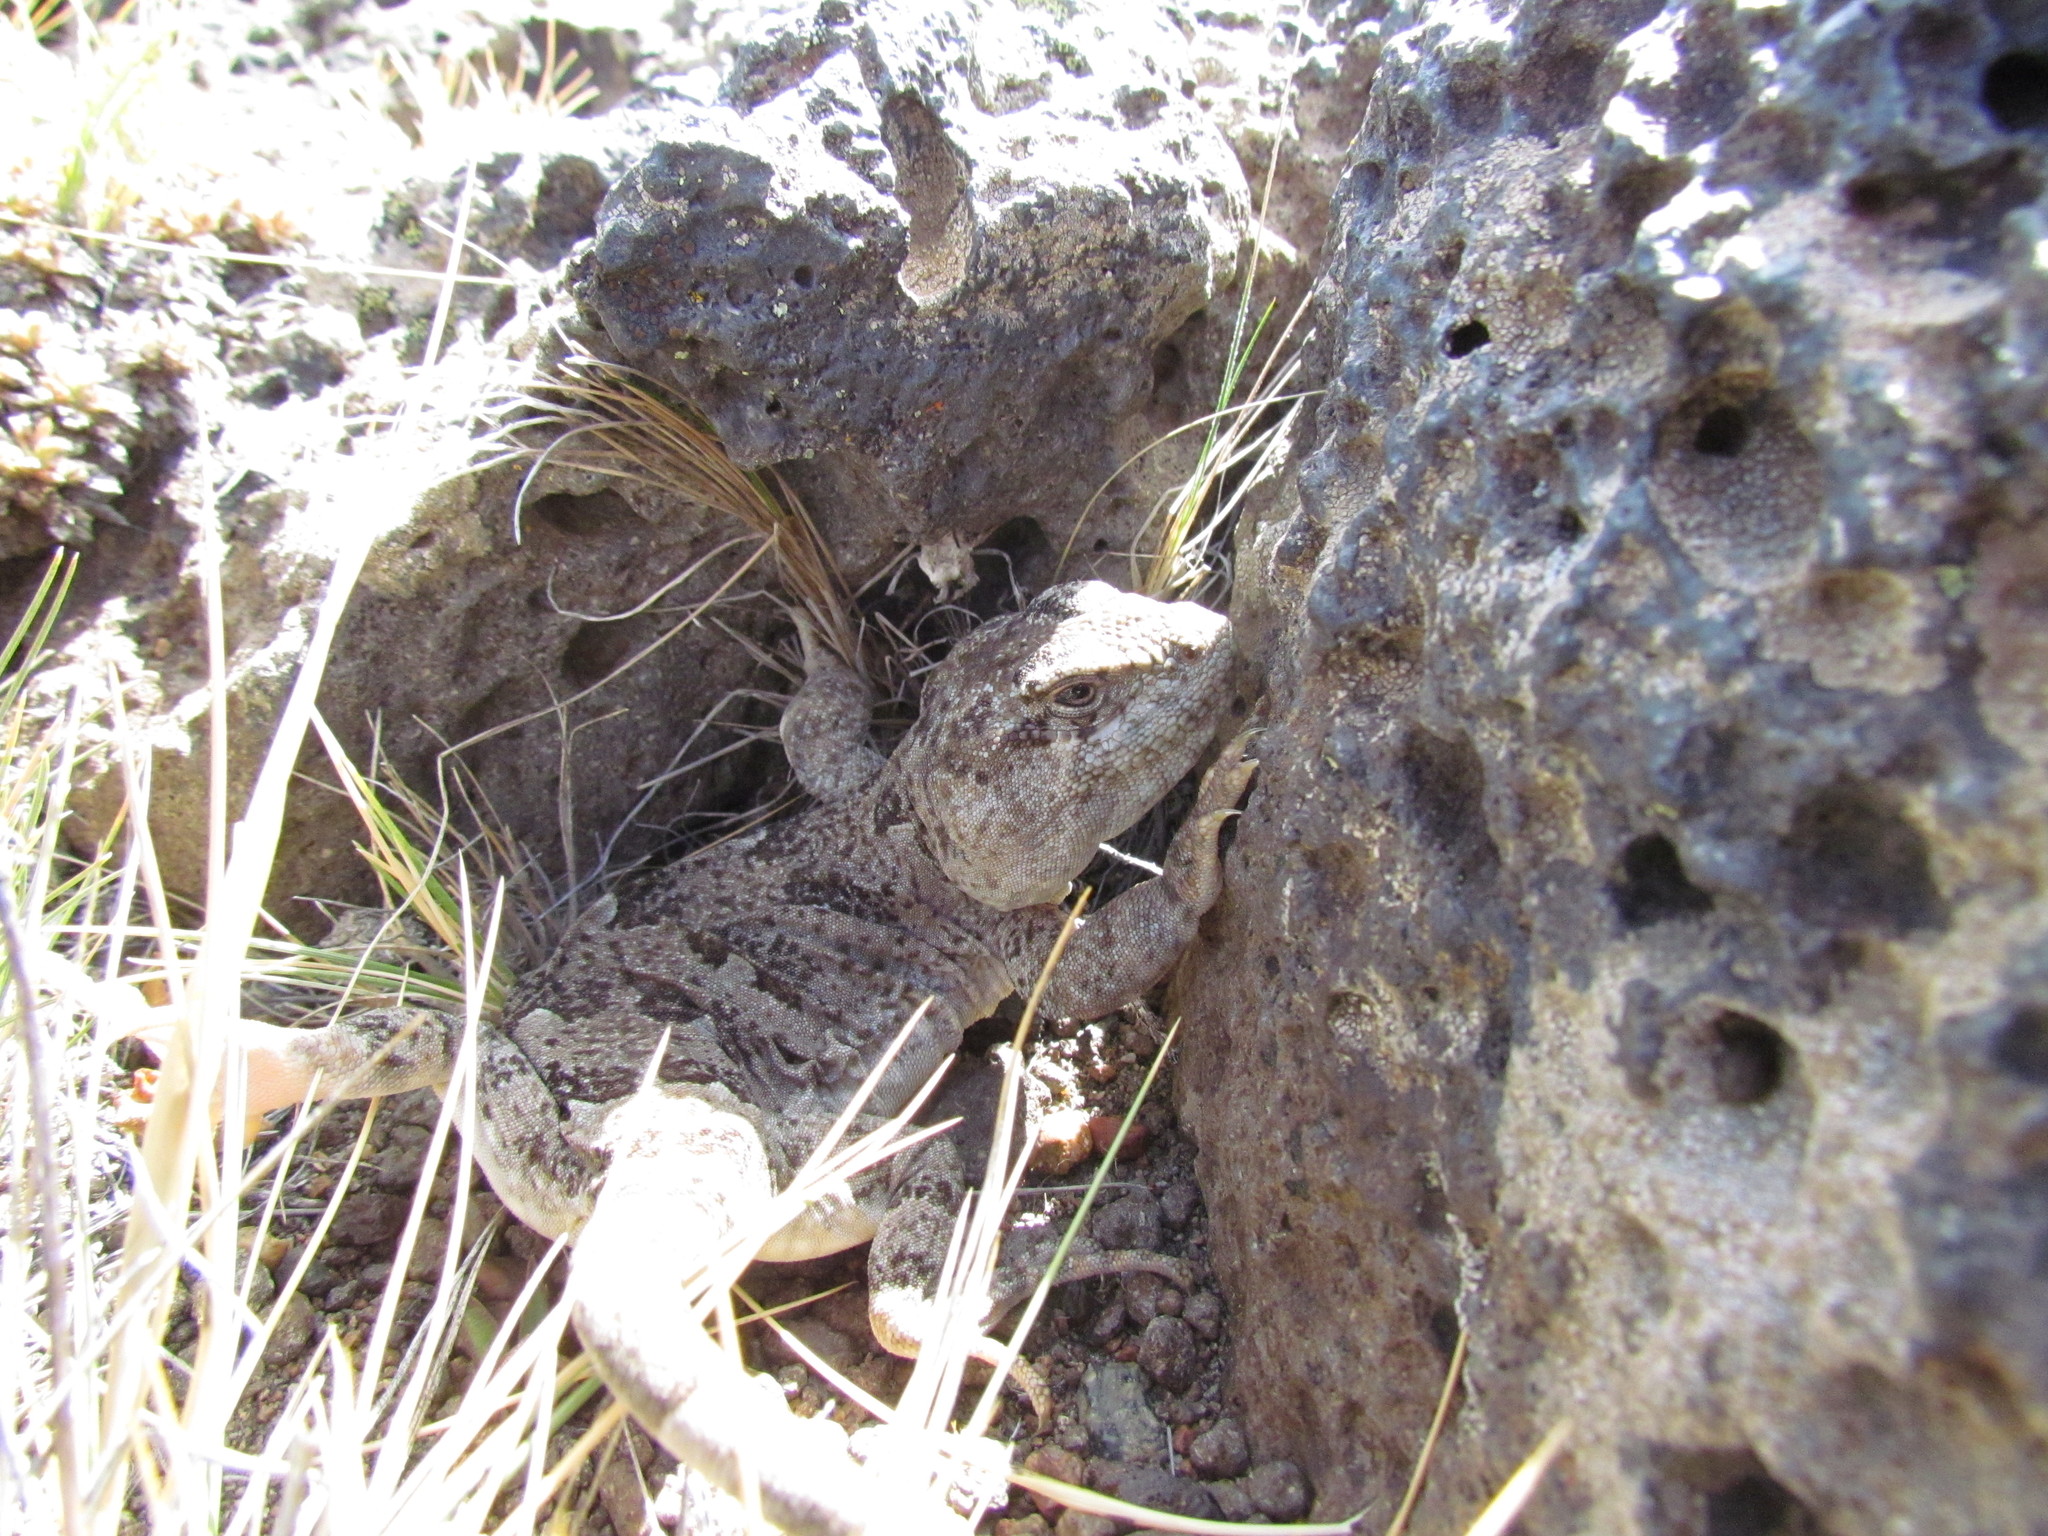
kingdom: Animalia
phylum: Chordata
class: Squamata
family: Leiosauridae
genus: Diplolaemus
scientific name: Diplolaemus darwinii
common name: Darwin's iguana
